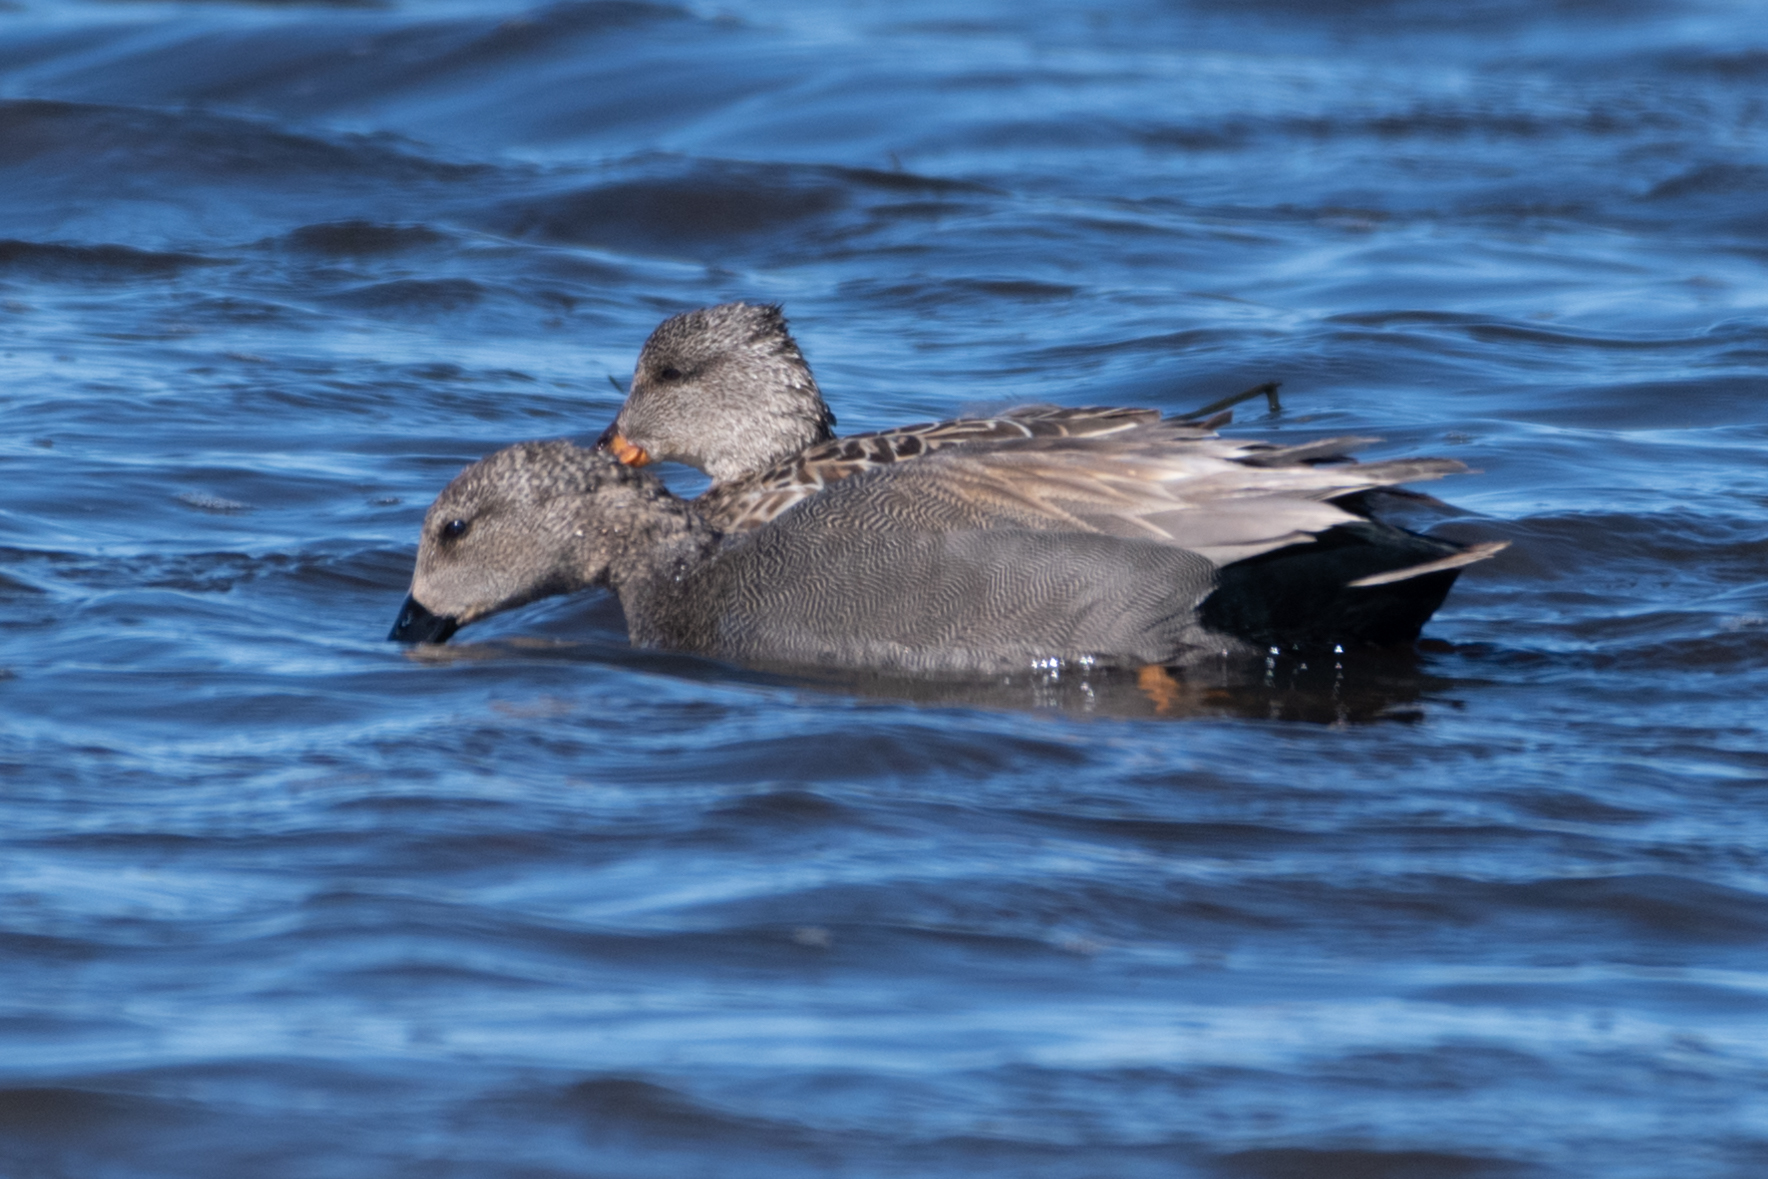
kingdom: Animalia
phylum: Chordata
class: Aves
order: Anseriformes
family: Anatidae
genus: Mareca
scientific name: Mareca strepera
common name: Gadwall
